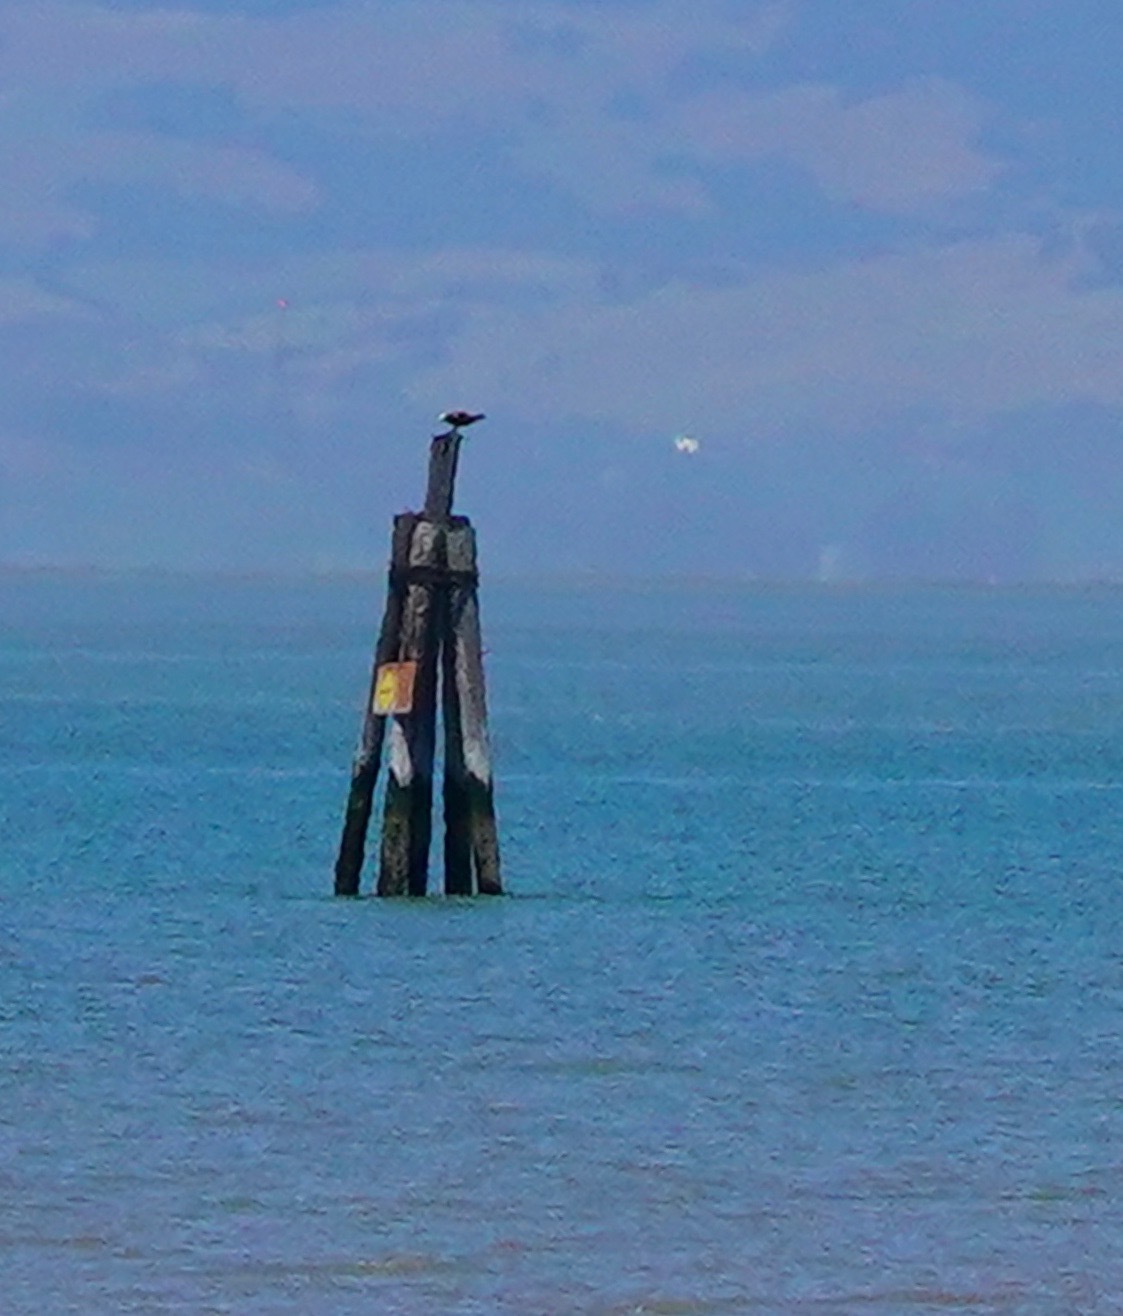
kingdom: Animalia
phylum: Chordata
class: Aves
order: Accipitriformes
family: Pandionidae
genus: Pandion
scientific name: Pandion haliaetus
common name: Osprey
